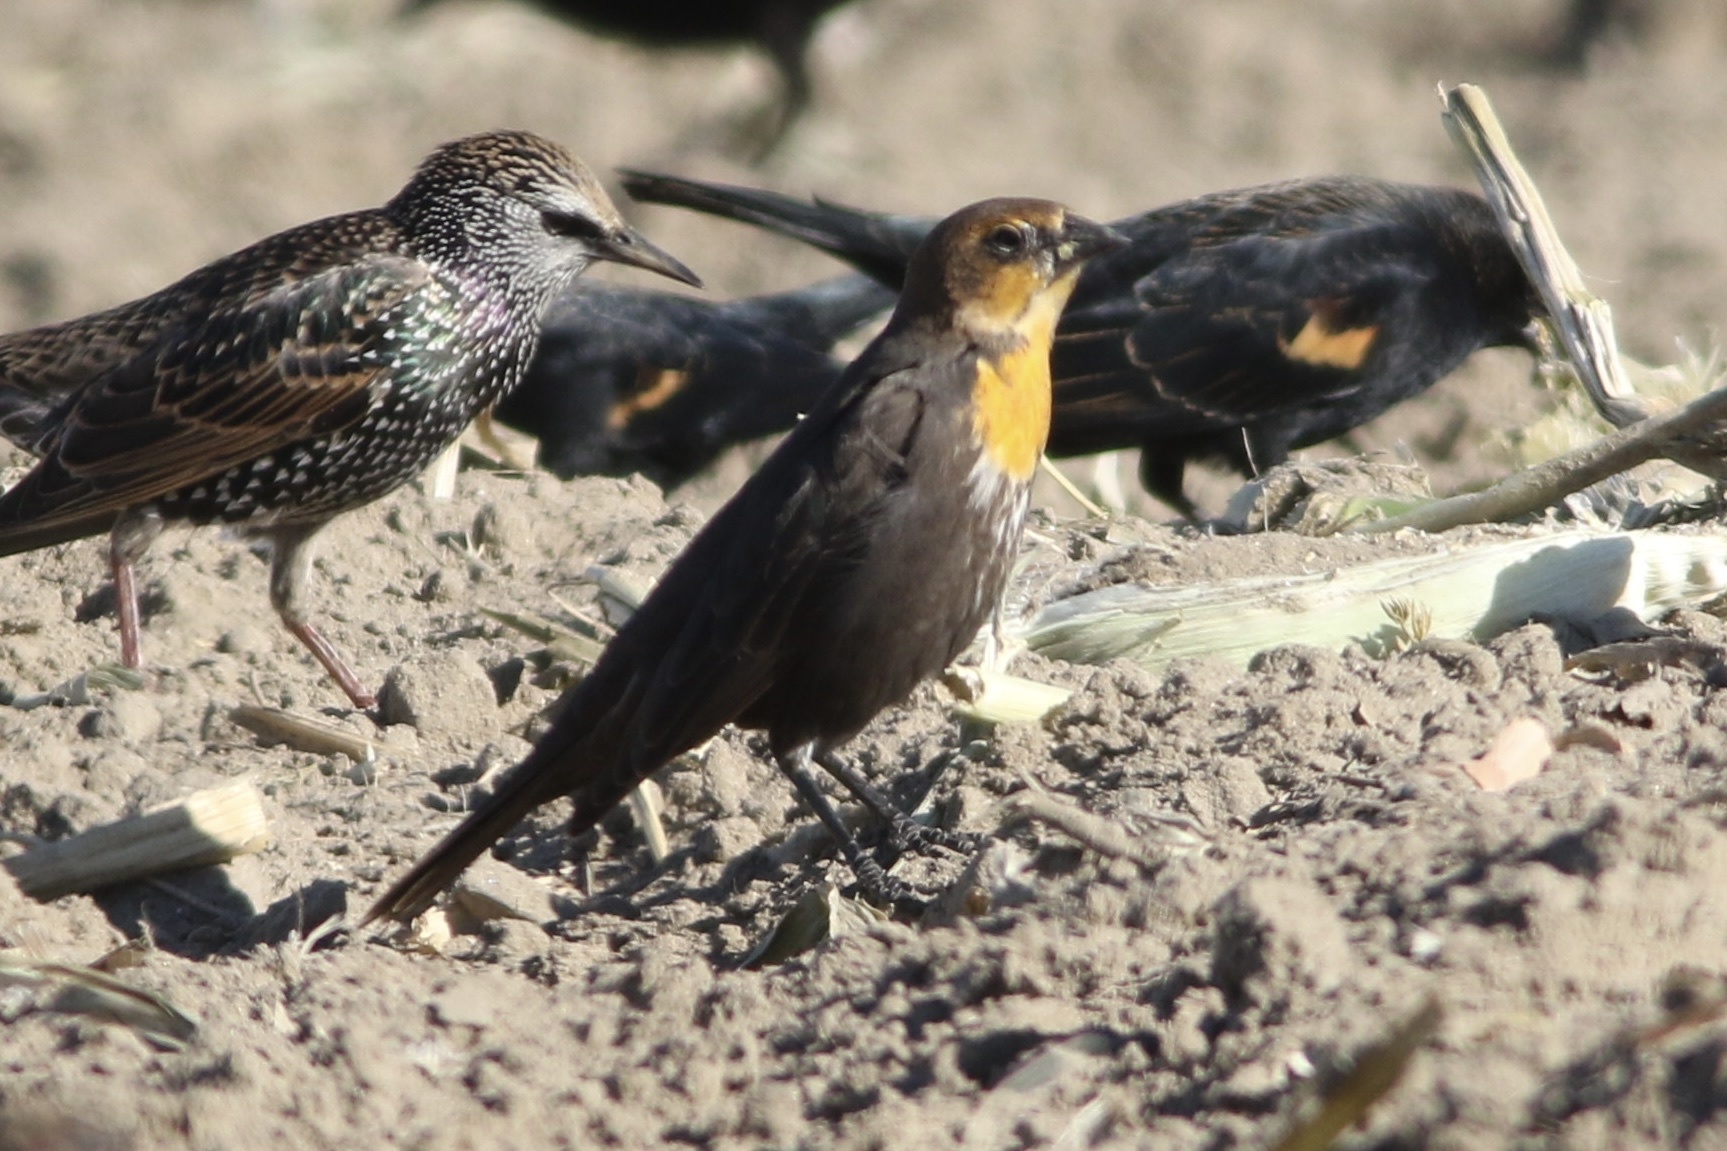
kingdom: Animalia
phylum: Chordata
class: Aves
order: Passeriformes
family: Icteridae
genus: Xanthocephalus
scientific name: Xanthocephalus xanthocephalus
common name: Yellow-headed blackbird
